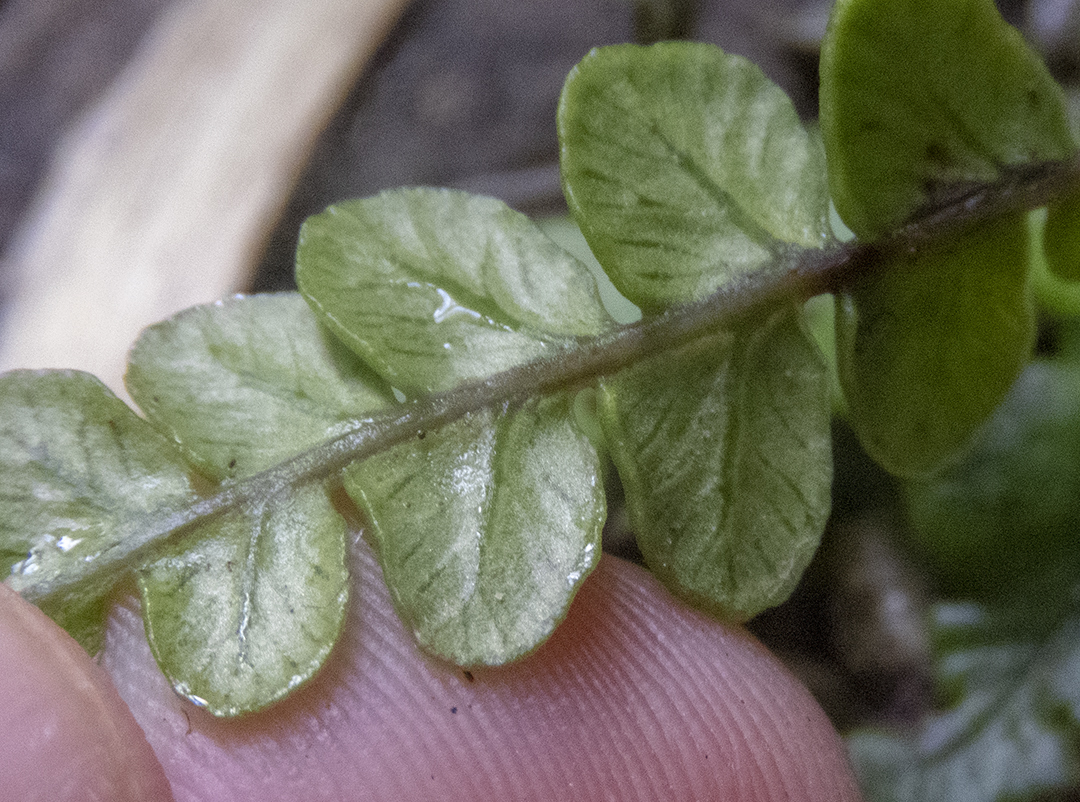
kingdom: Plantae
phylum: Tracheophyta
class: Polypodiopsida
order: Polypodiales
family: Blechnaceae
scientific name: Blechnaceae
